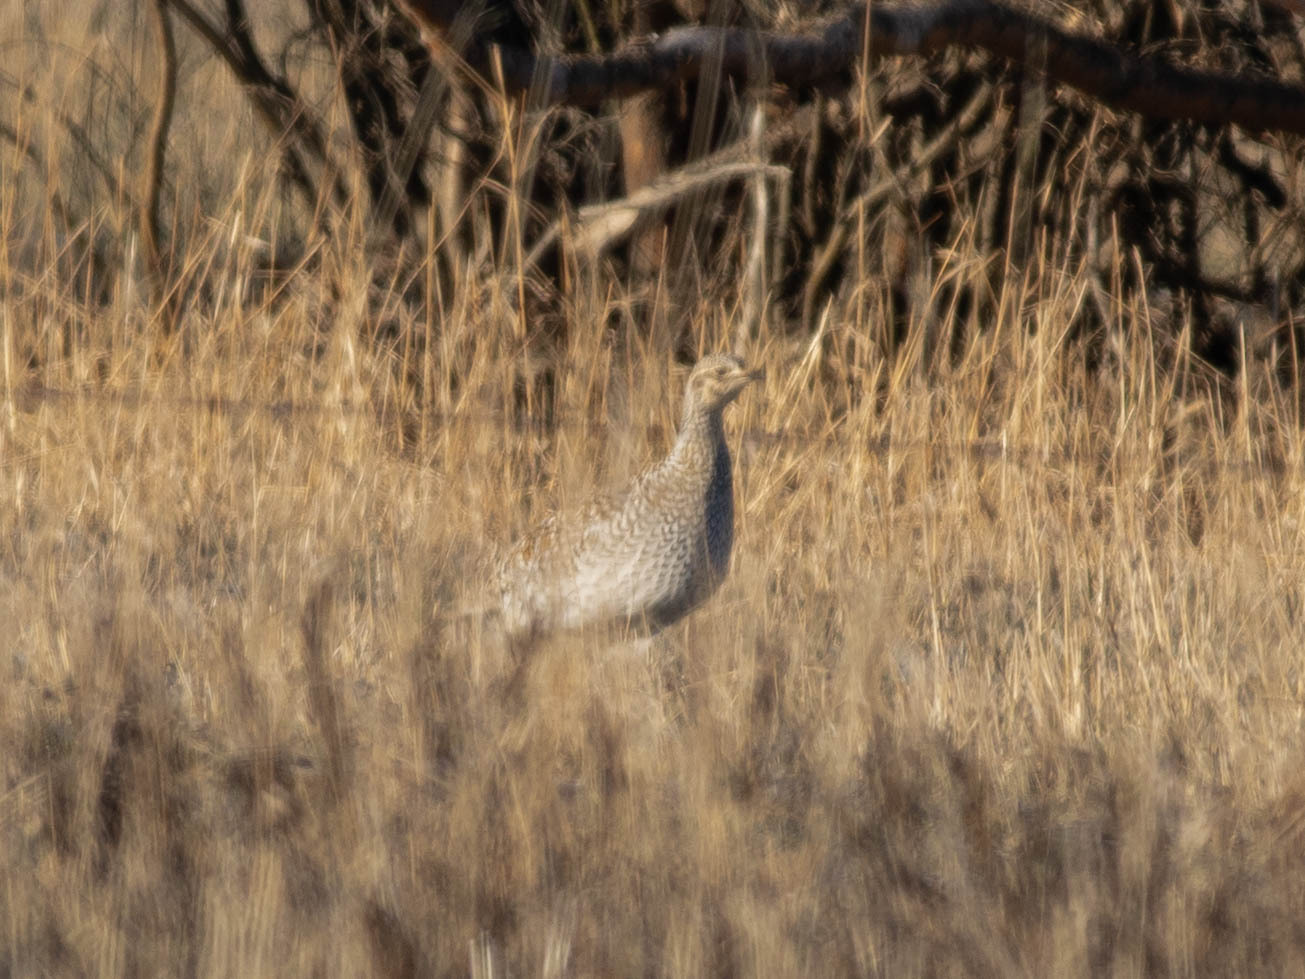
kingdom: Animalia
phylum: Chordata
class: Aves
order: Galliformes
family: Phasianidae
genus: Tympanuchus
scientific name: Tympanuchus phasianellus
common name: Sharp-tailed grouse
